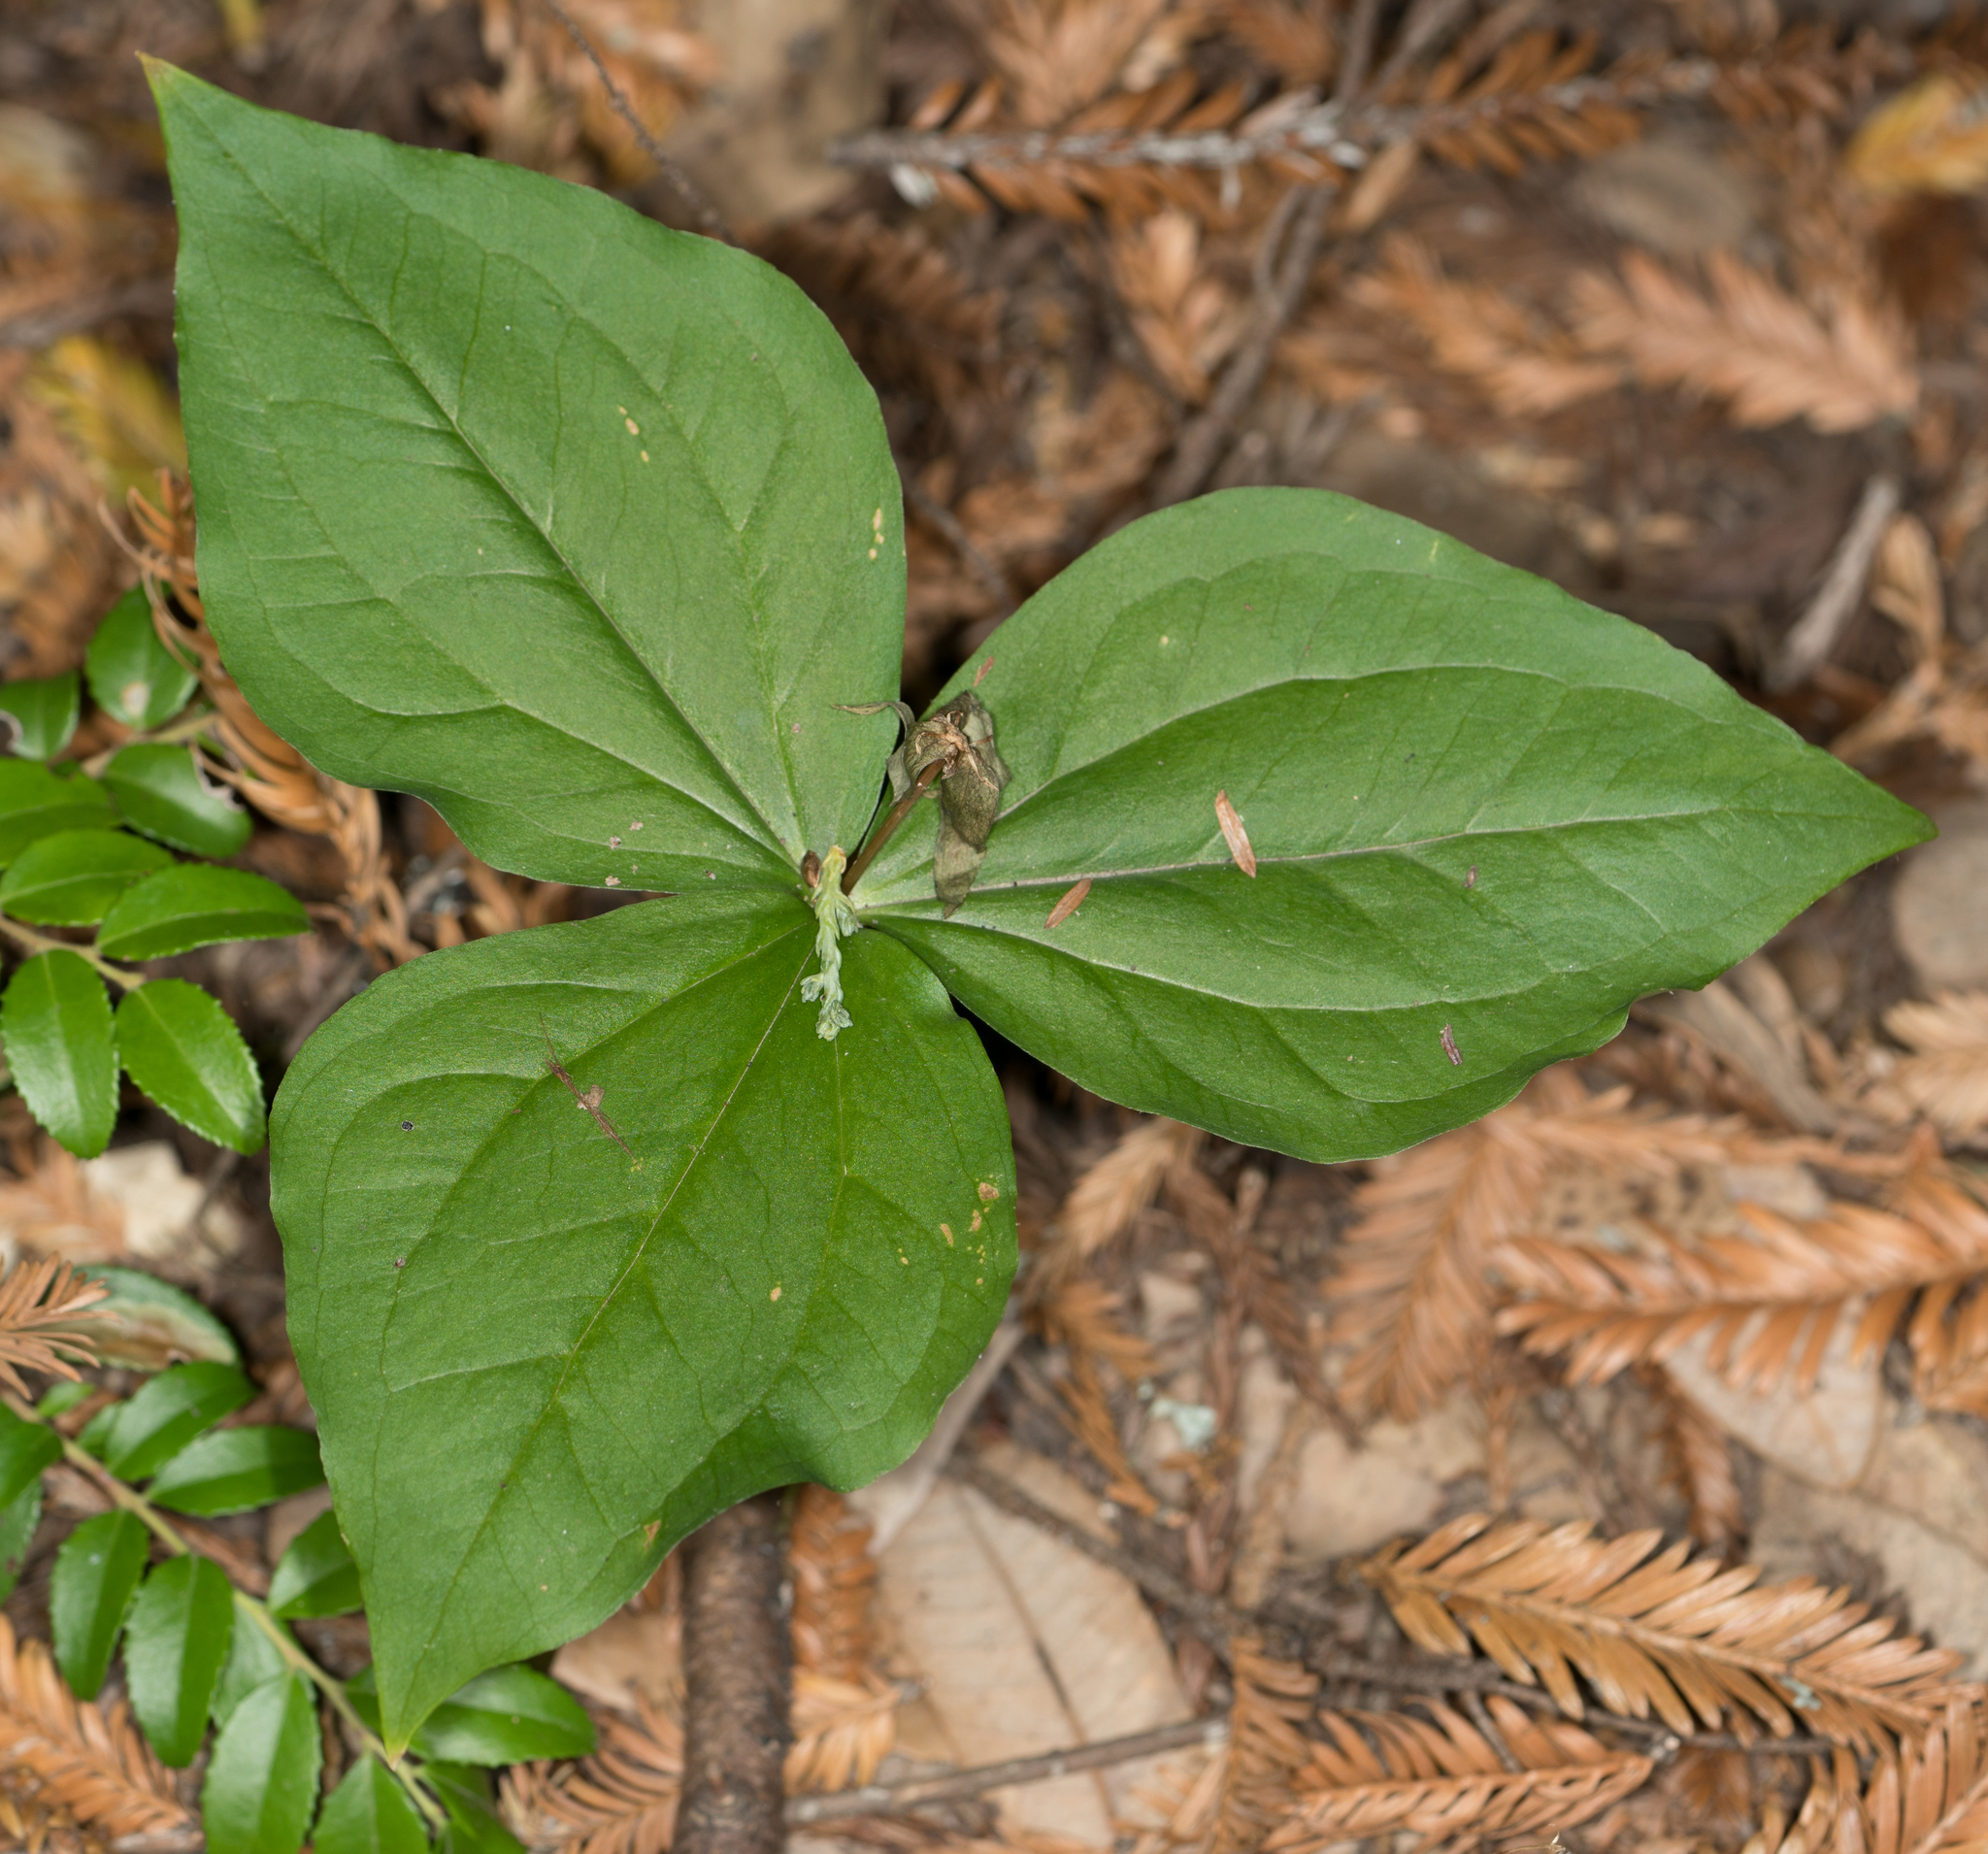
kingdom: Plantae
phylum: Tracheophyta
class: Liliopsida
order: Liliales
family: Melanthiaceae
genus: Trillium
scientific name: Trillium ovatum
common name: Pacific trillium
